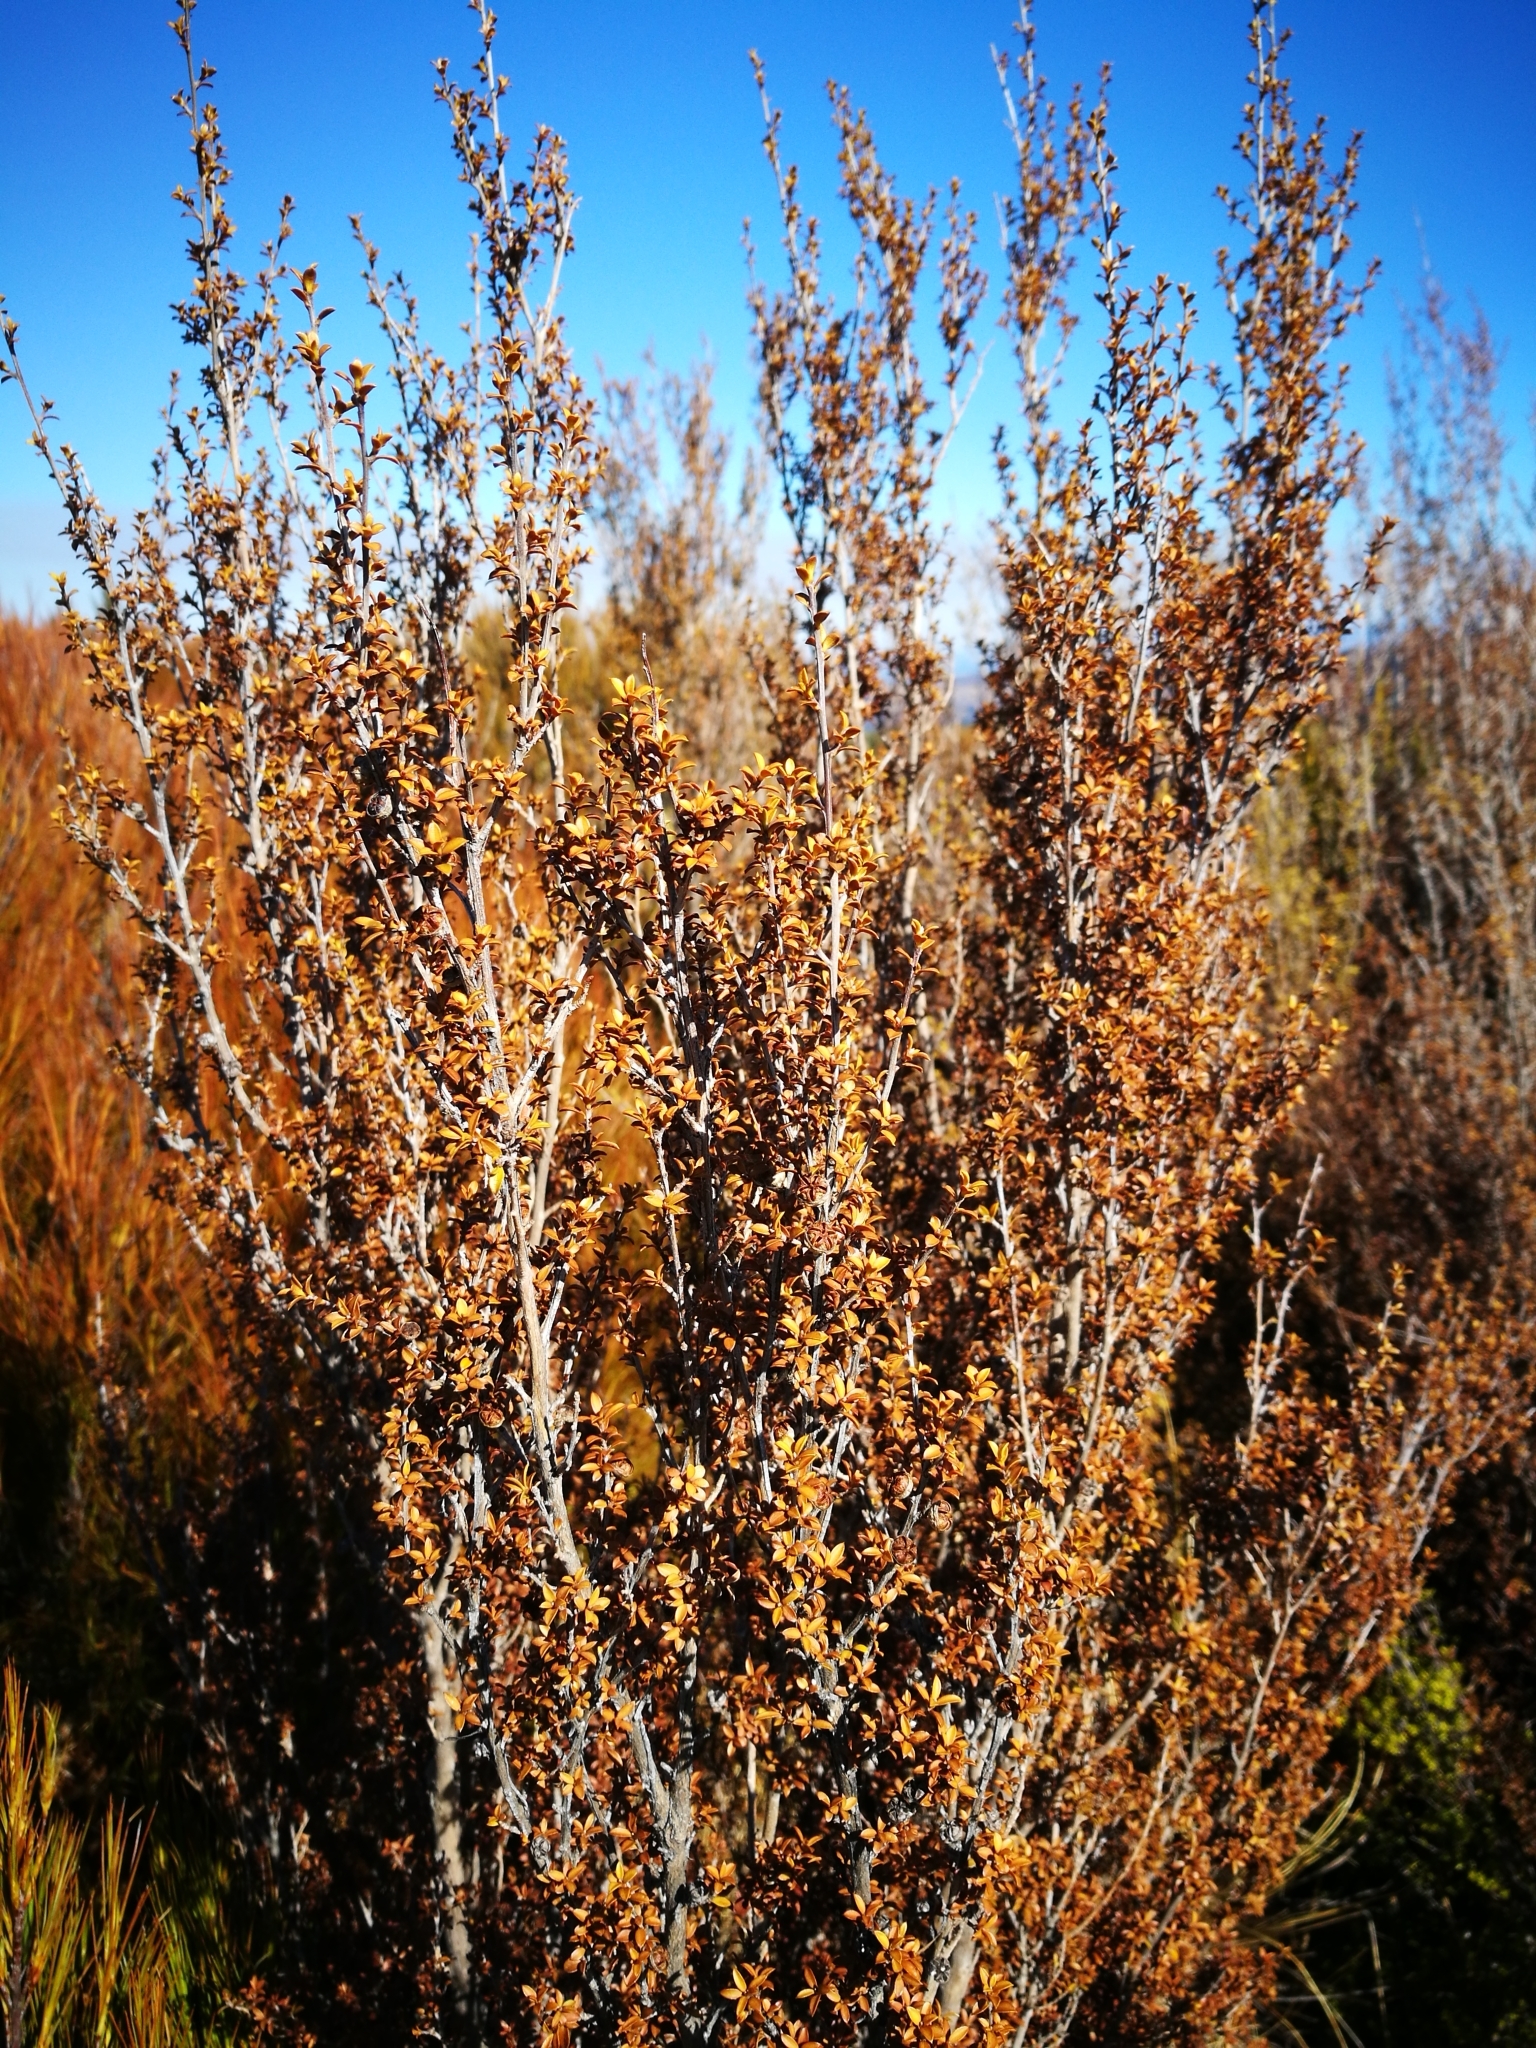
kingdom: Plantae
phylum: Tracheophyta
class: Magnoliopsida
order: Myrtales
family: Myrtaceae
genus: Leptospermum
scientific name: Leptospermum scoparium
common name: Broom tea-tree
